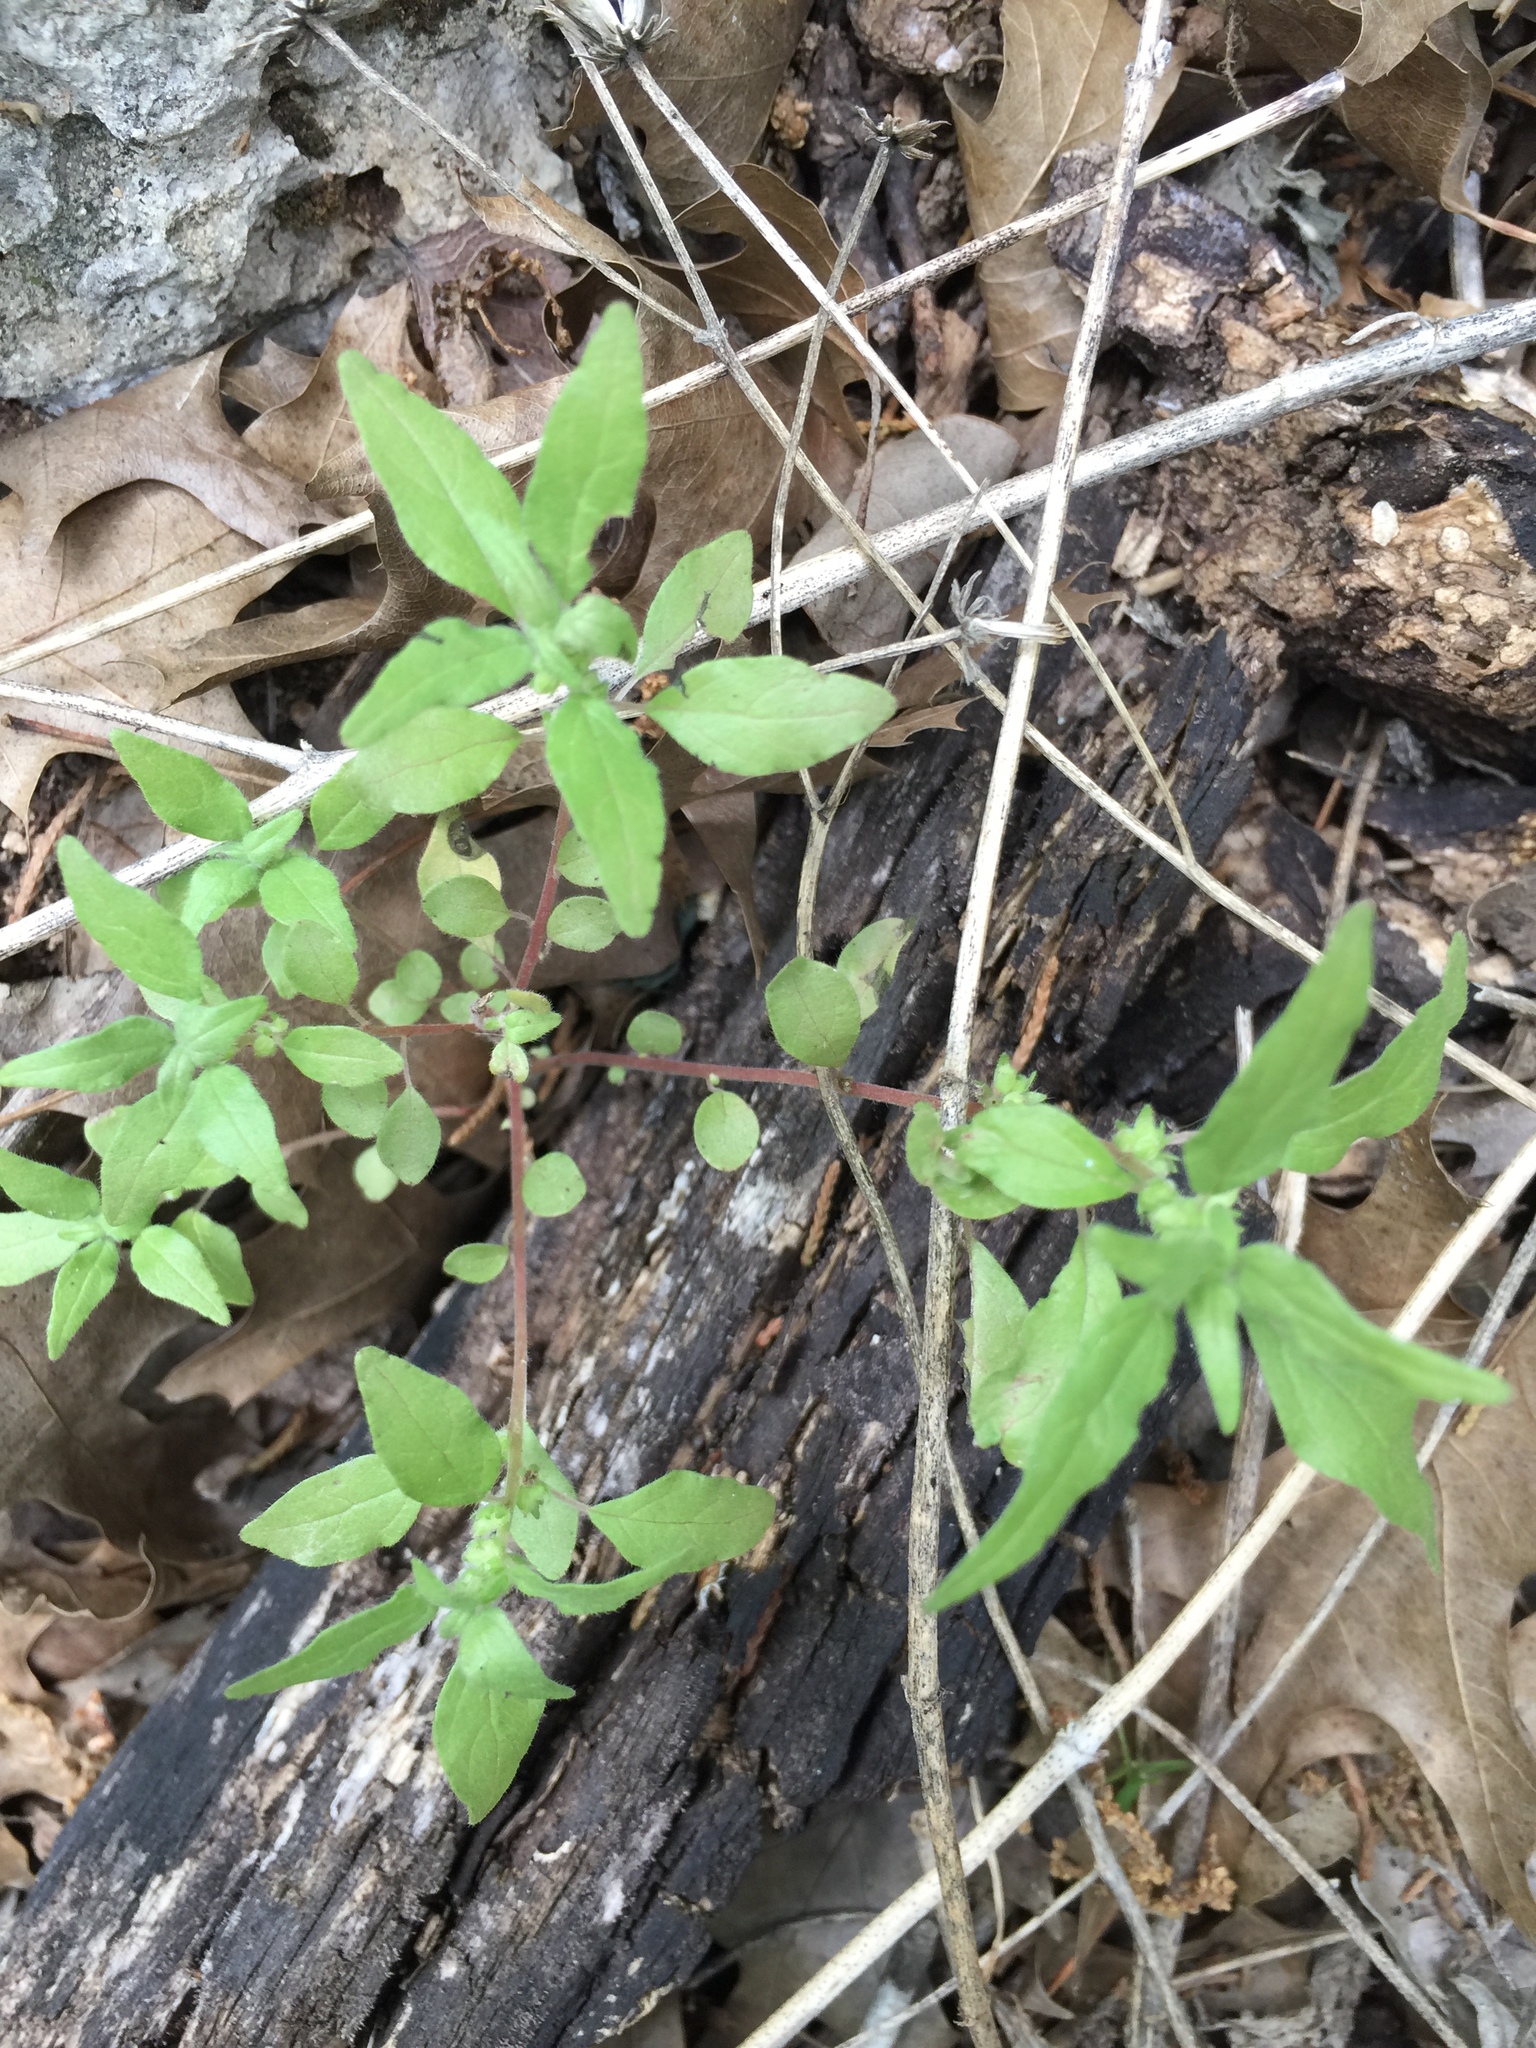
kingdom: Plantae
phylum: Tracheophyta
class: Magnoliopsida
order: Rosales
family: Urticaceae
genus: Parietaria
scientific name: Parietaria pensylvanica
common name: Pennsylvania pellitory
